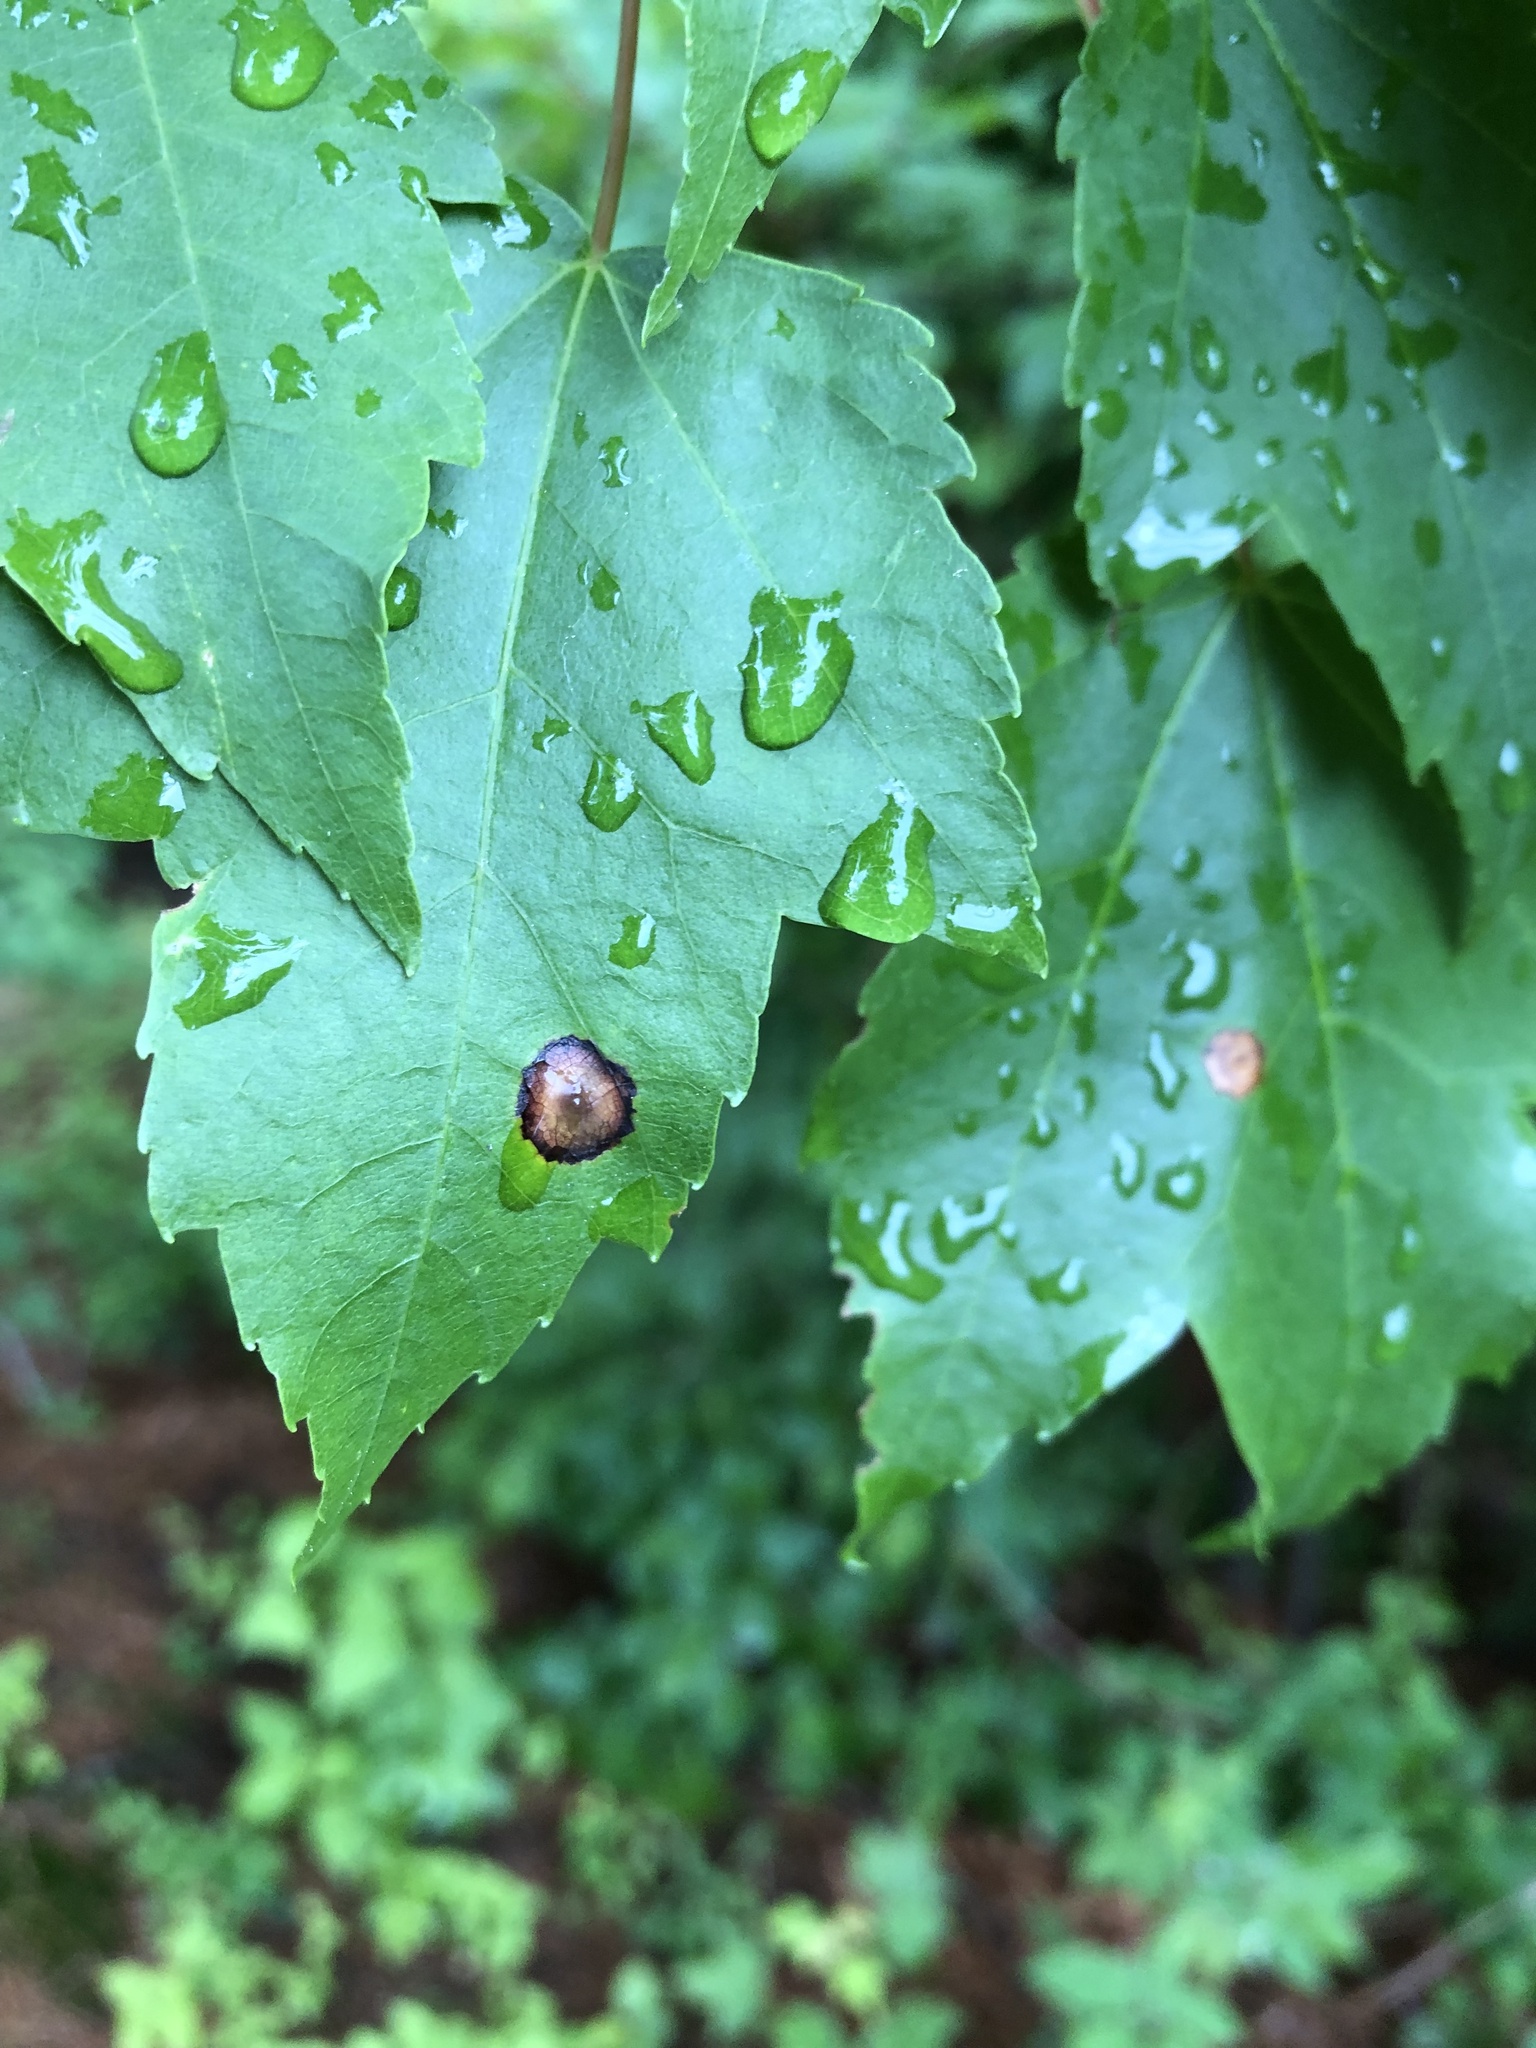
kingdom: Animalia
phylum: Arthropoda
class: Insecta
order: Diptera
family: Cecidomyiidae
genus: Acericecis
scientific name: Acericecis ocellaris
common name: Ocellate gall midge
